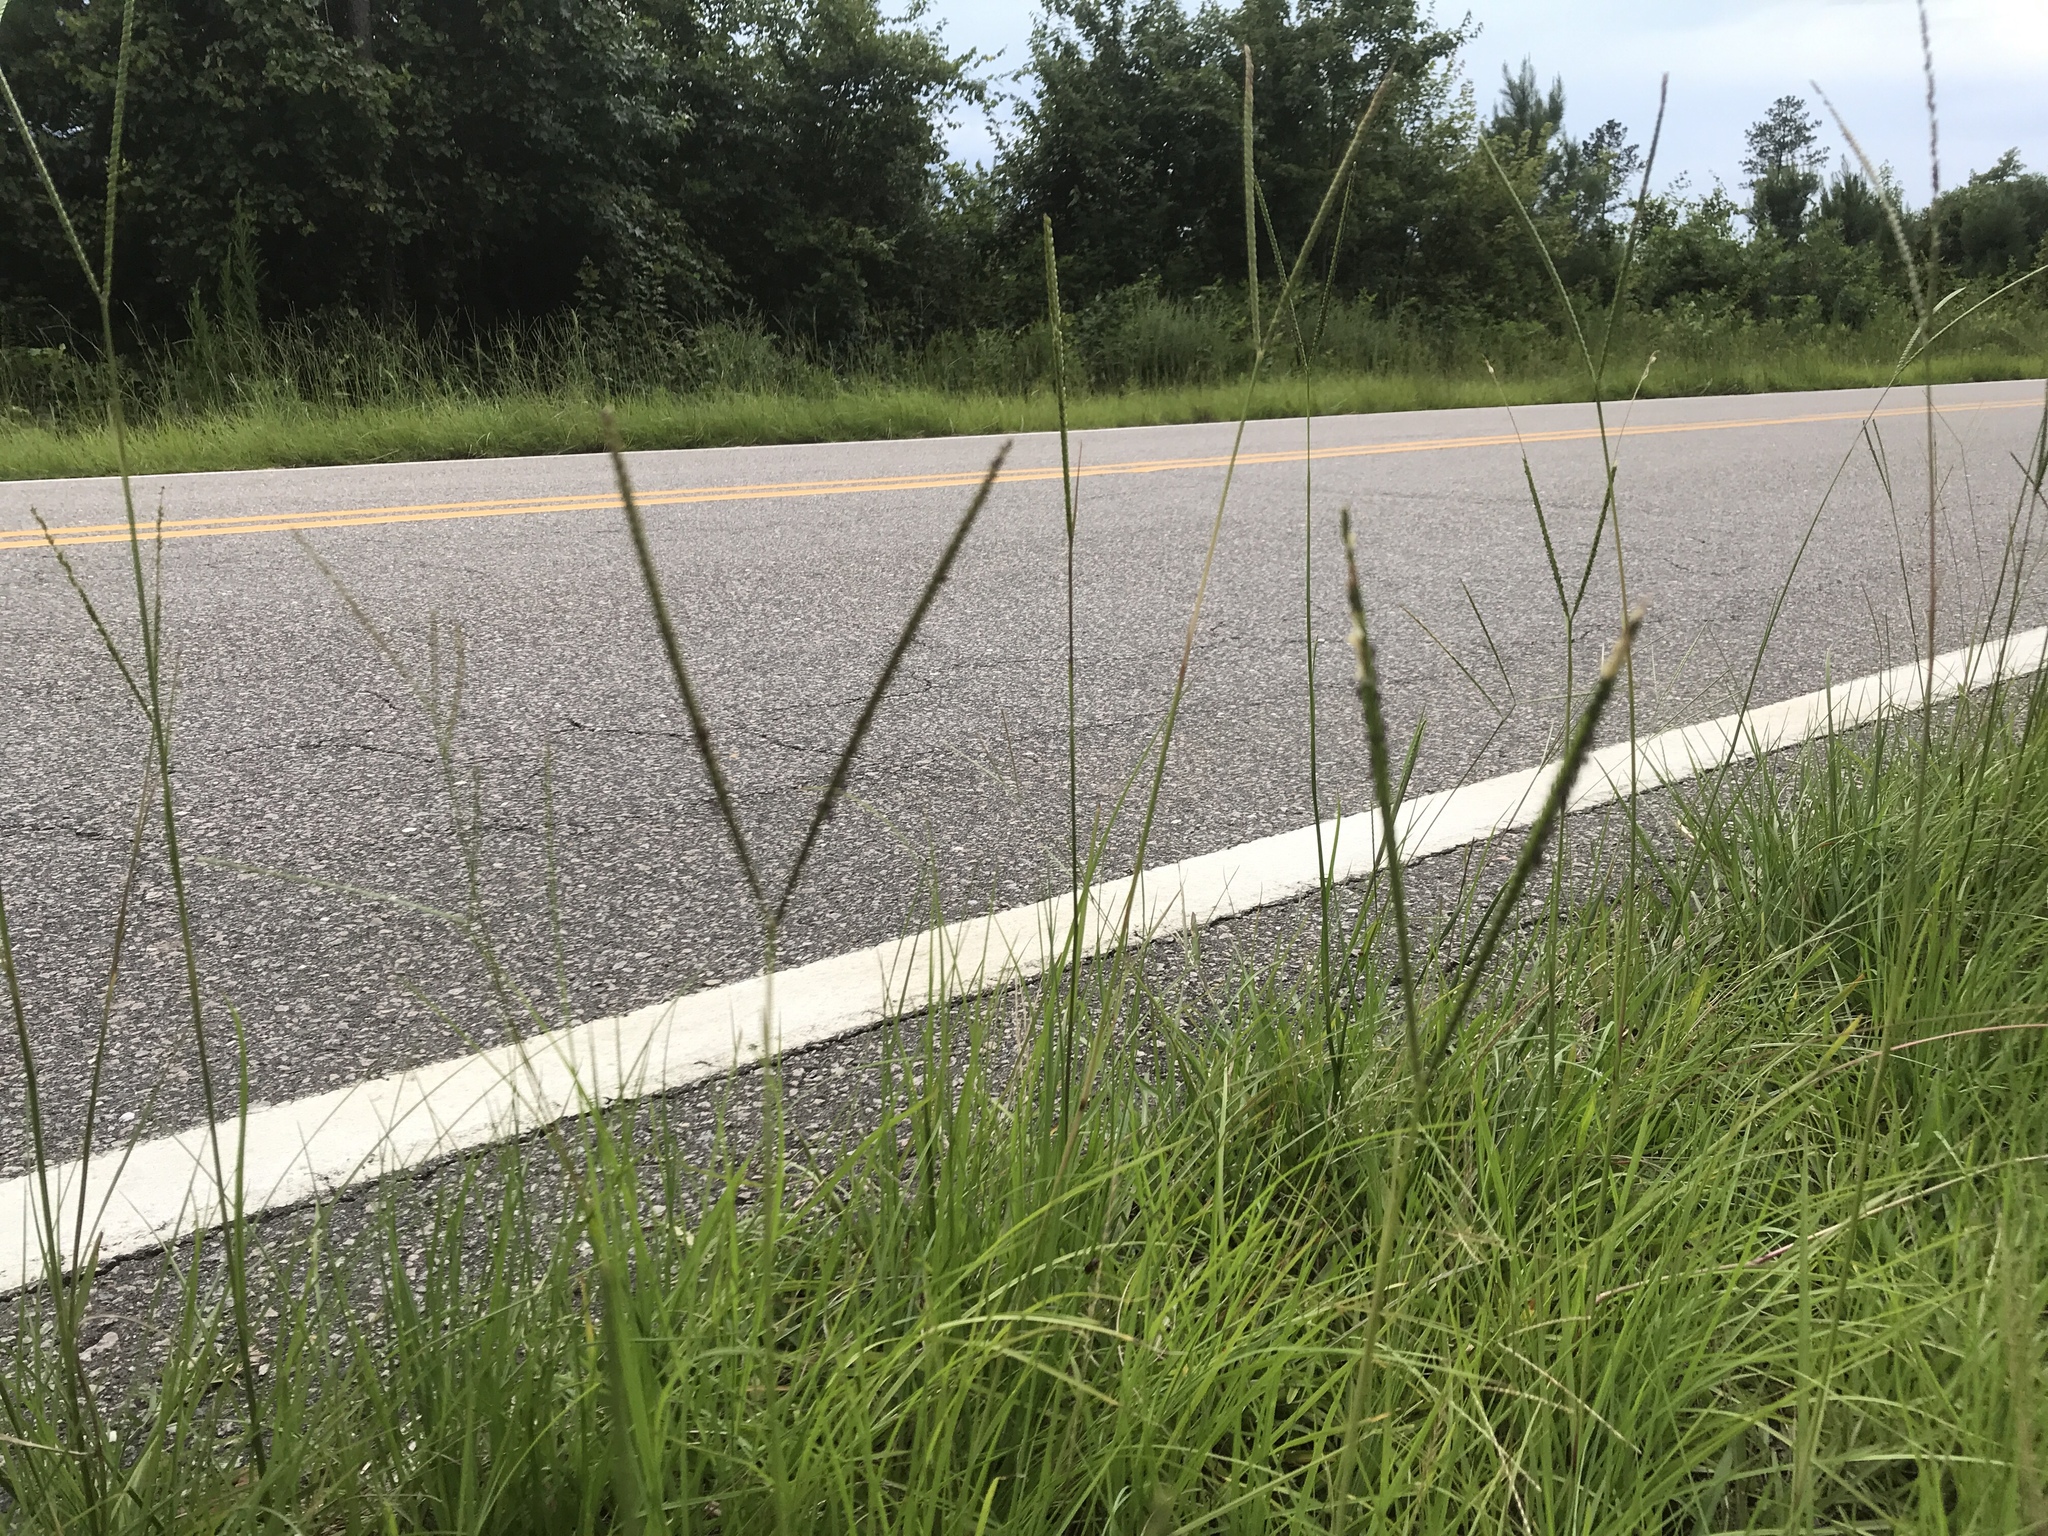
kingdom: Plantae
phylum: Tracheophyta
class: Liliopsida
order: Poales
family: Poaceae
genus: Paspalum
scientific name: Paspalum notatum
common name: Bahiagrass
